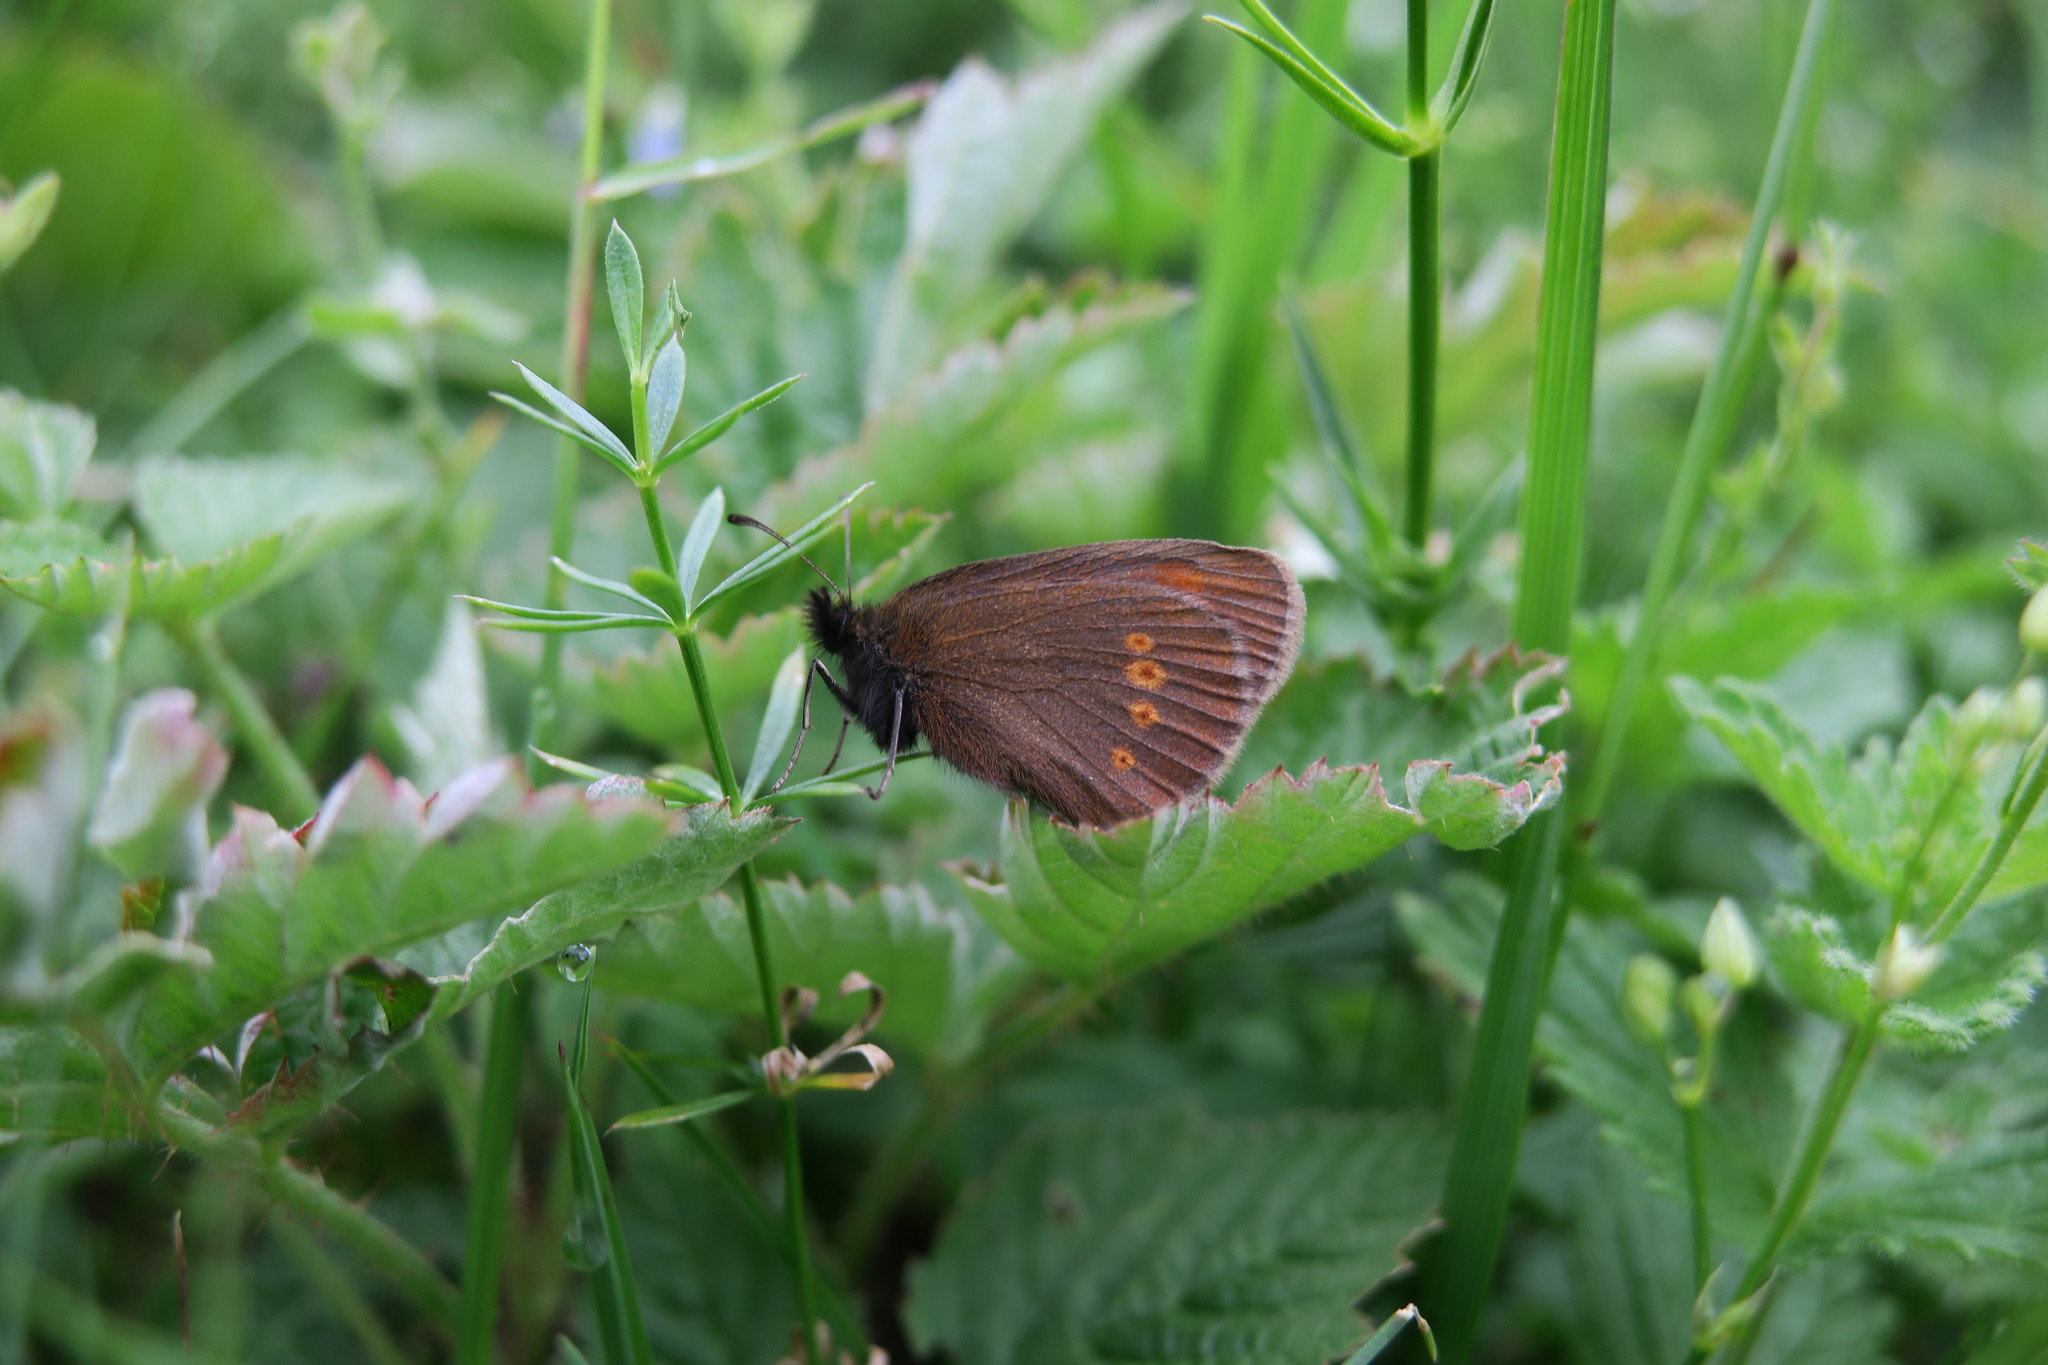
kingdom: Animalia
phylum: Arthropoda
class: Insecta
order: Lepidoptera
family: Nymphalidae
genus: Erebia
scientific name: Erebia melampus
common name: Lesser mountain ringlet
